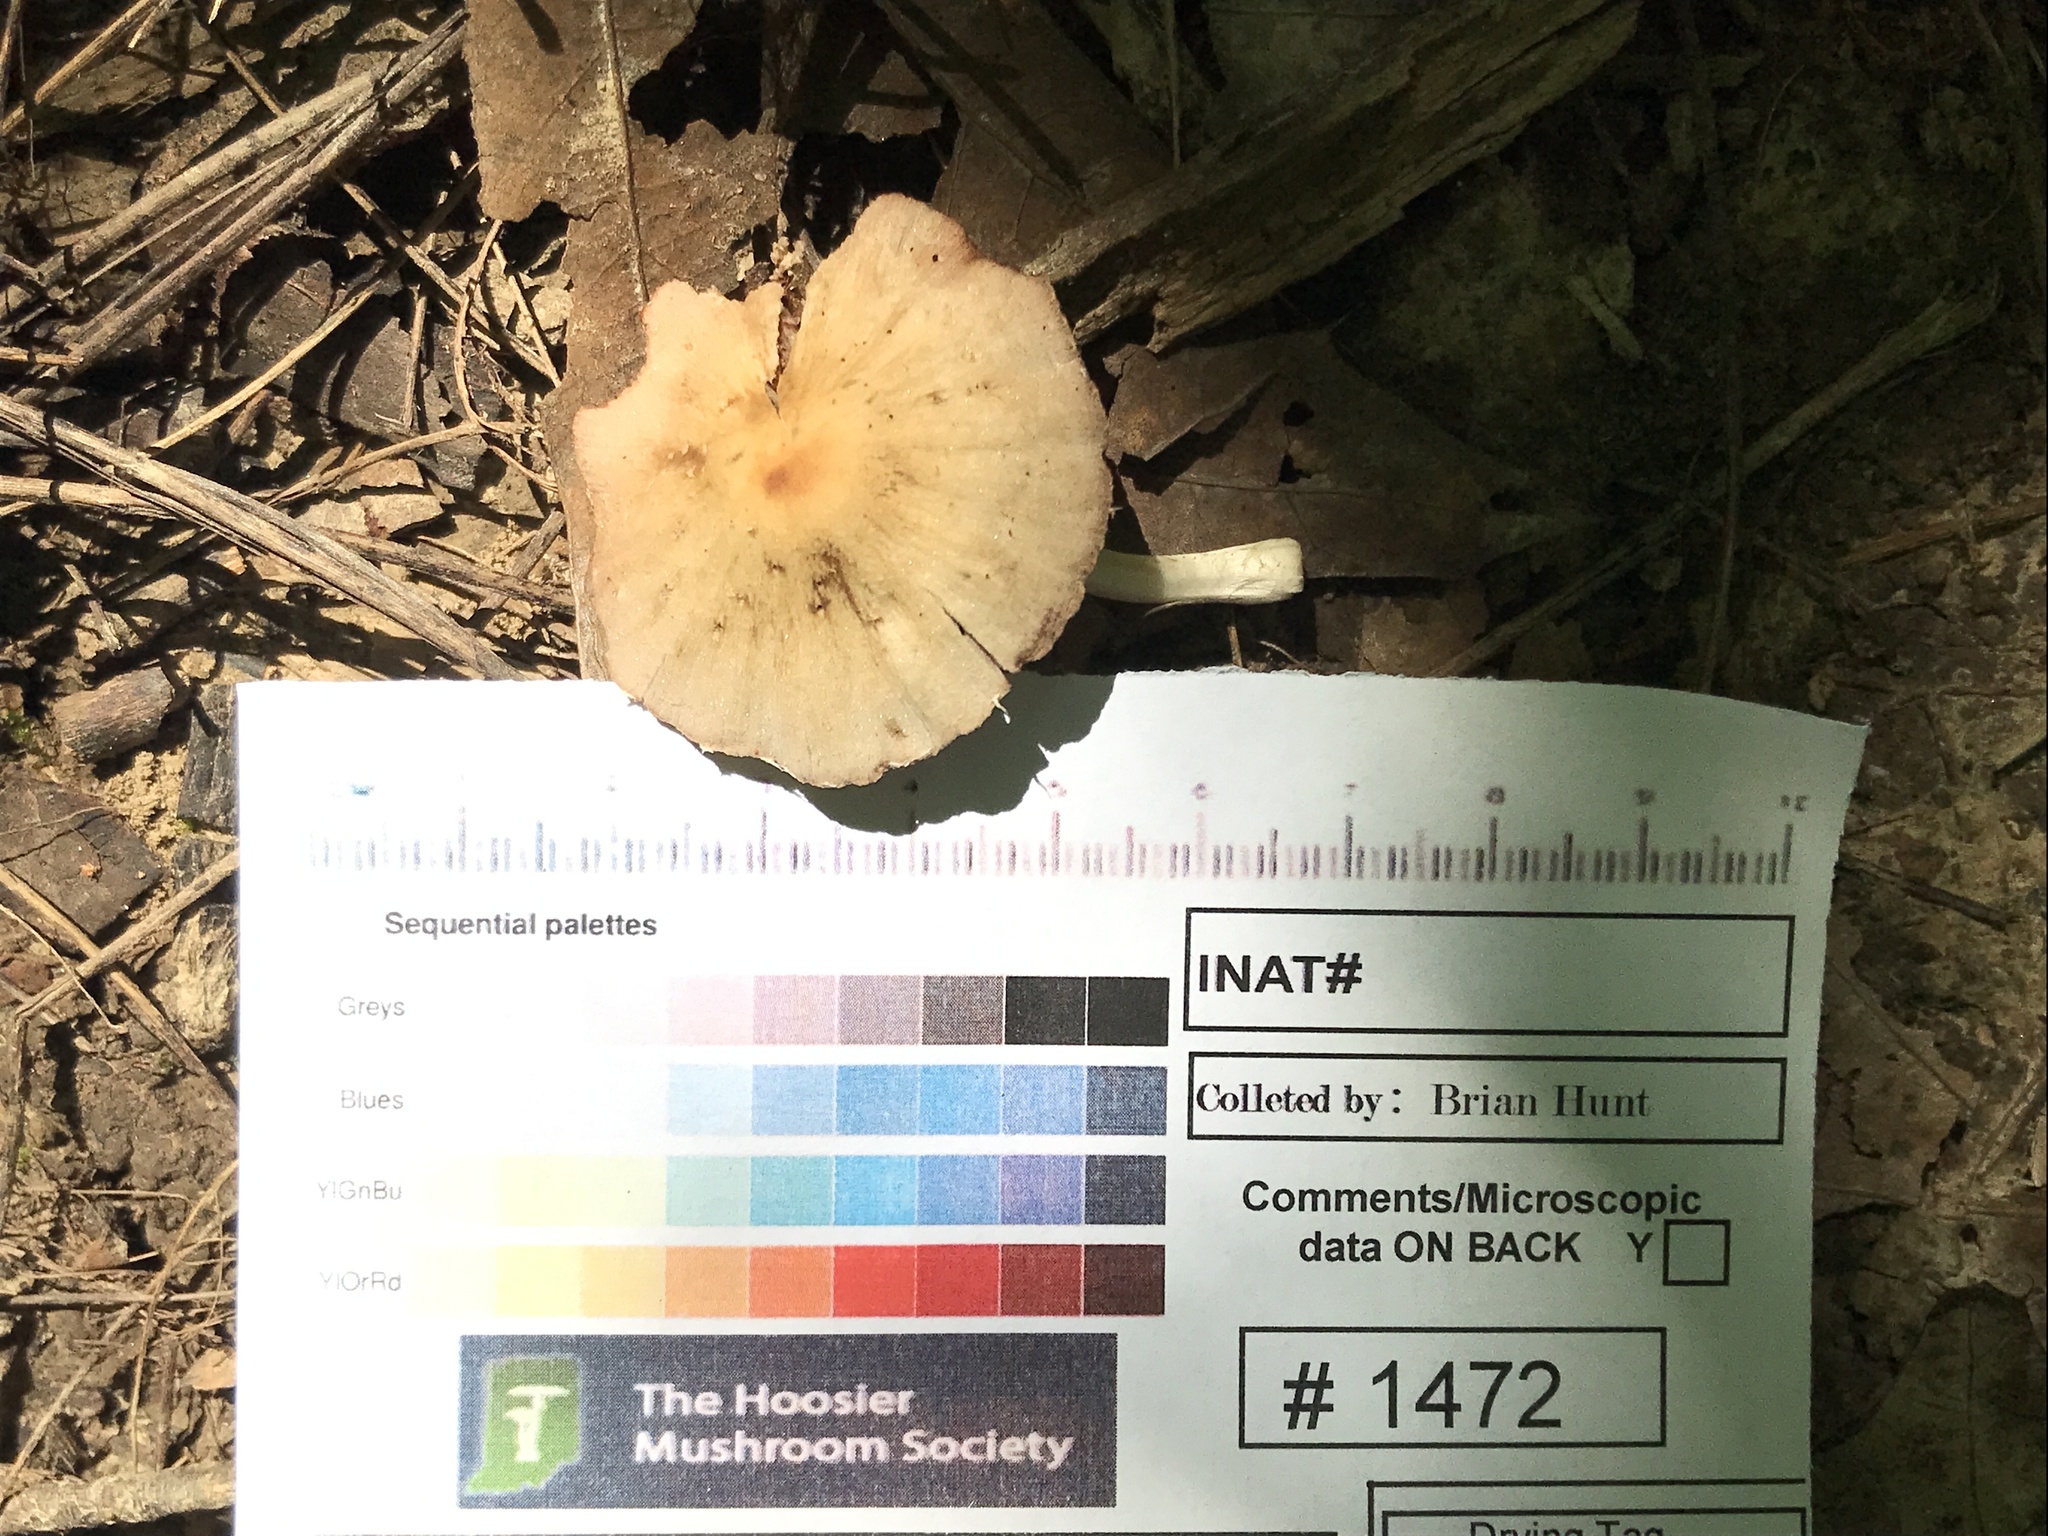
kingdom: Fungi
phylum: Basidiomycota
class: Agaricomycetes
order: Agaricales
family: Psathyrellaceae
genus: Candolleomyces
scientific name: Candolleomyces candolleanus
